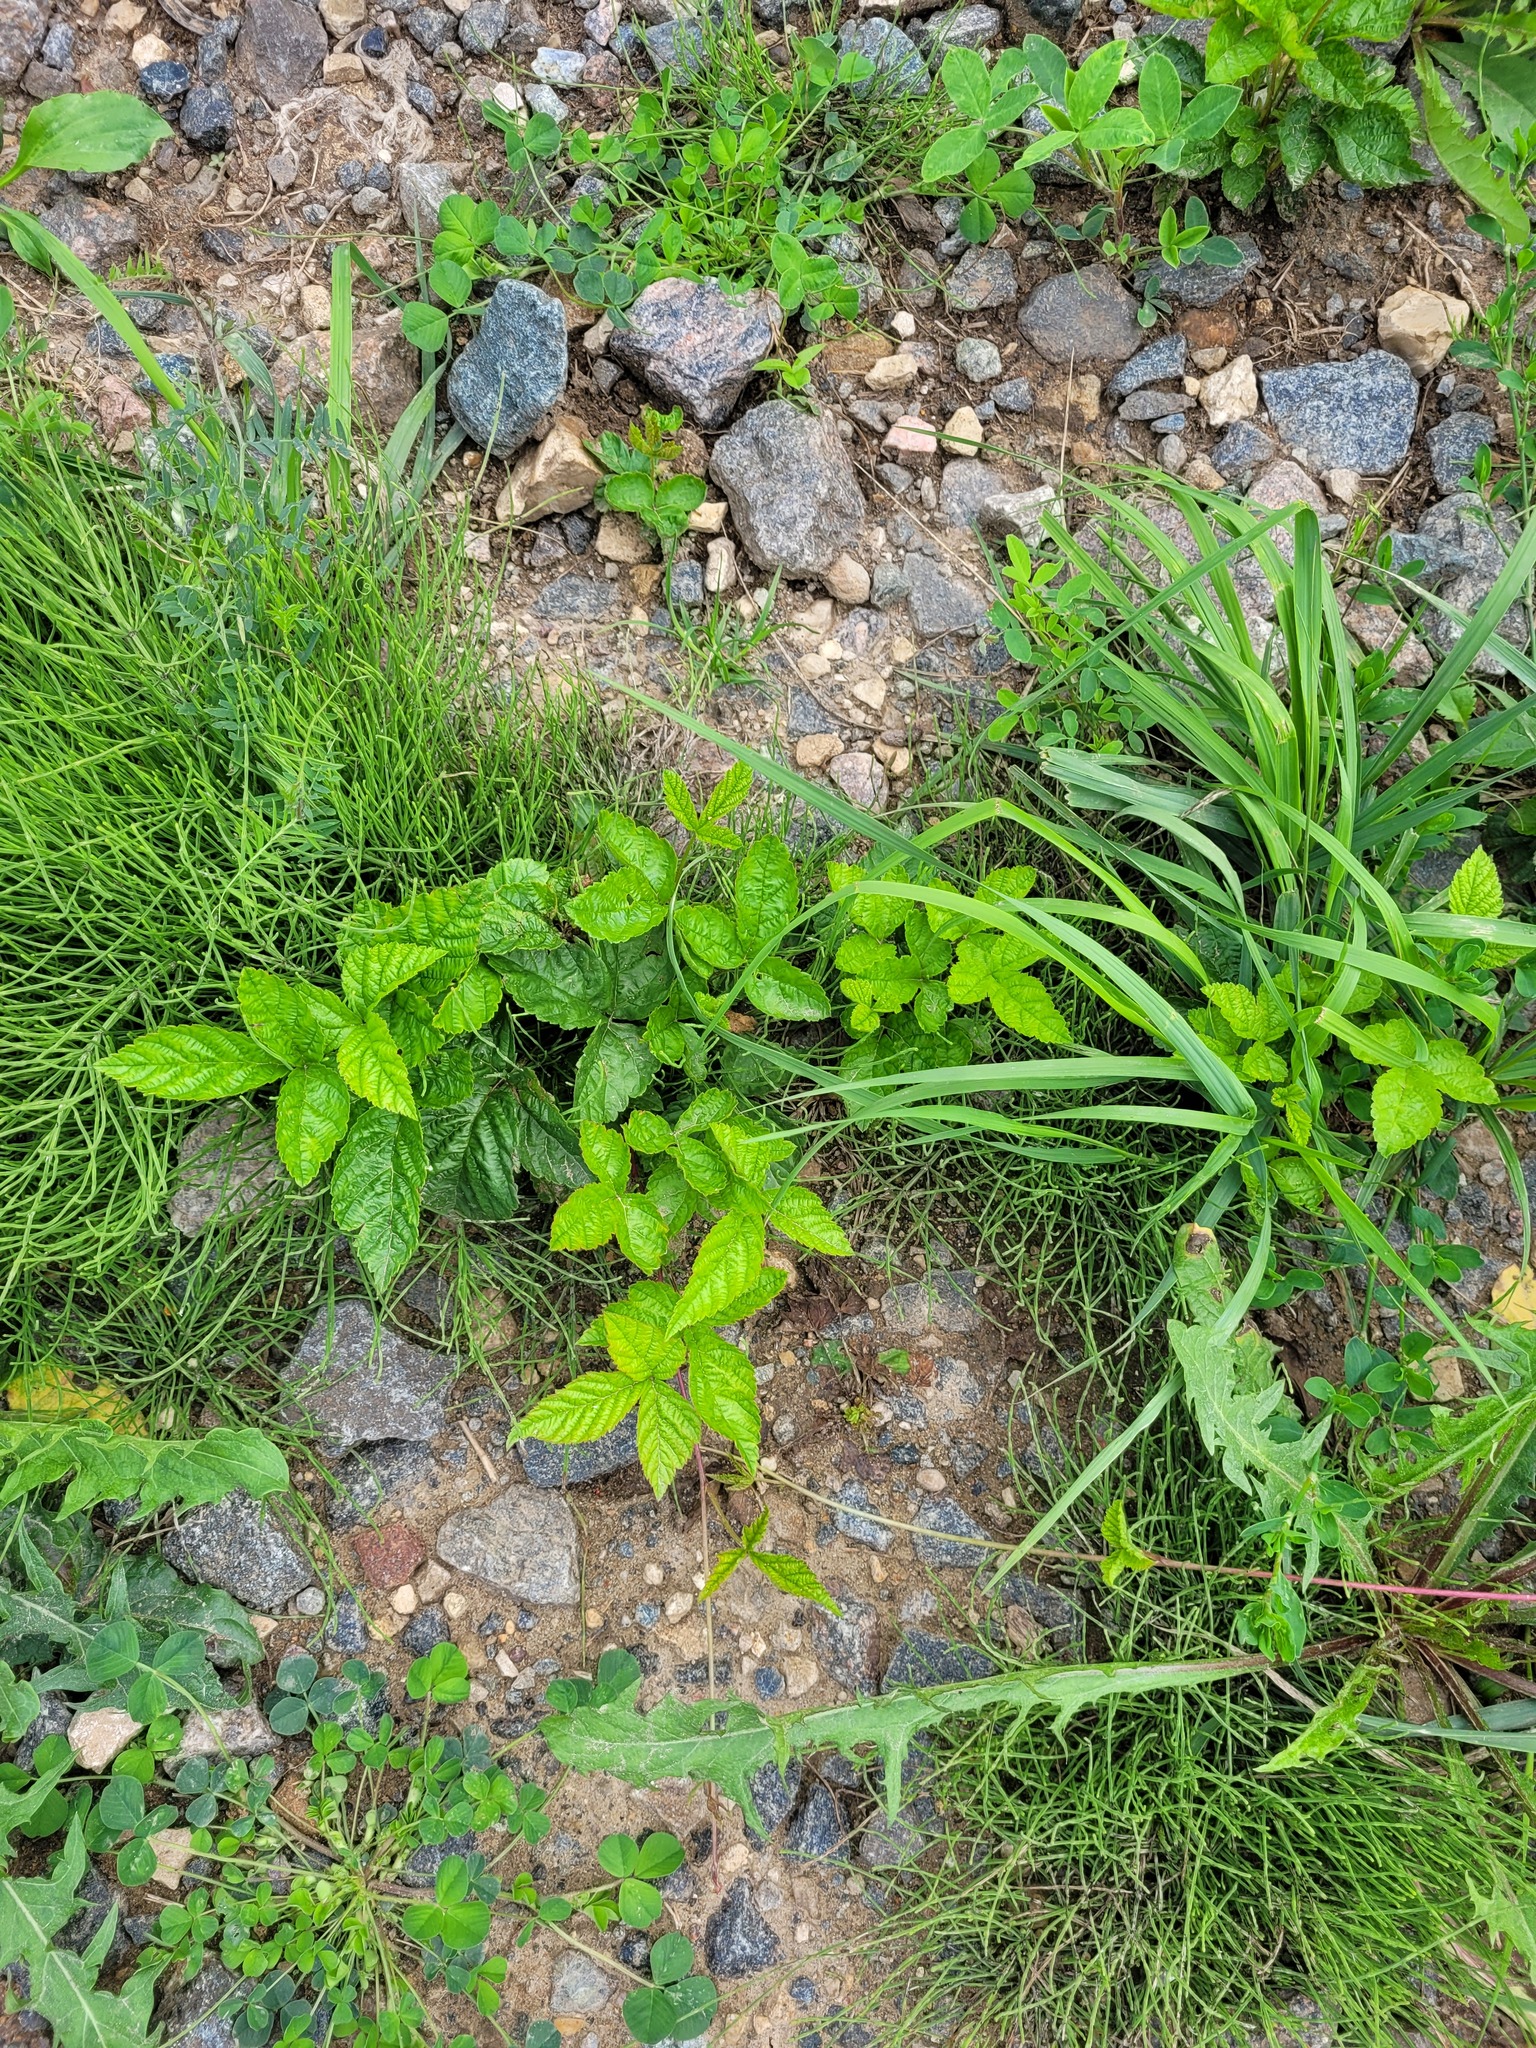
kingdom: Plantae
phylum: Tracheophyta
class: Magnoliopsida
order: Rosales
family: Rosaceae
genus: Rubus
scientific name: Rubus saxatilis
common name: Stone bramble
